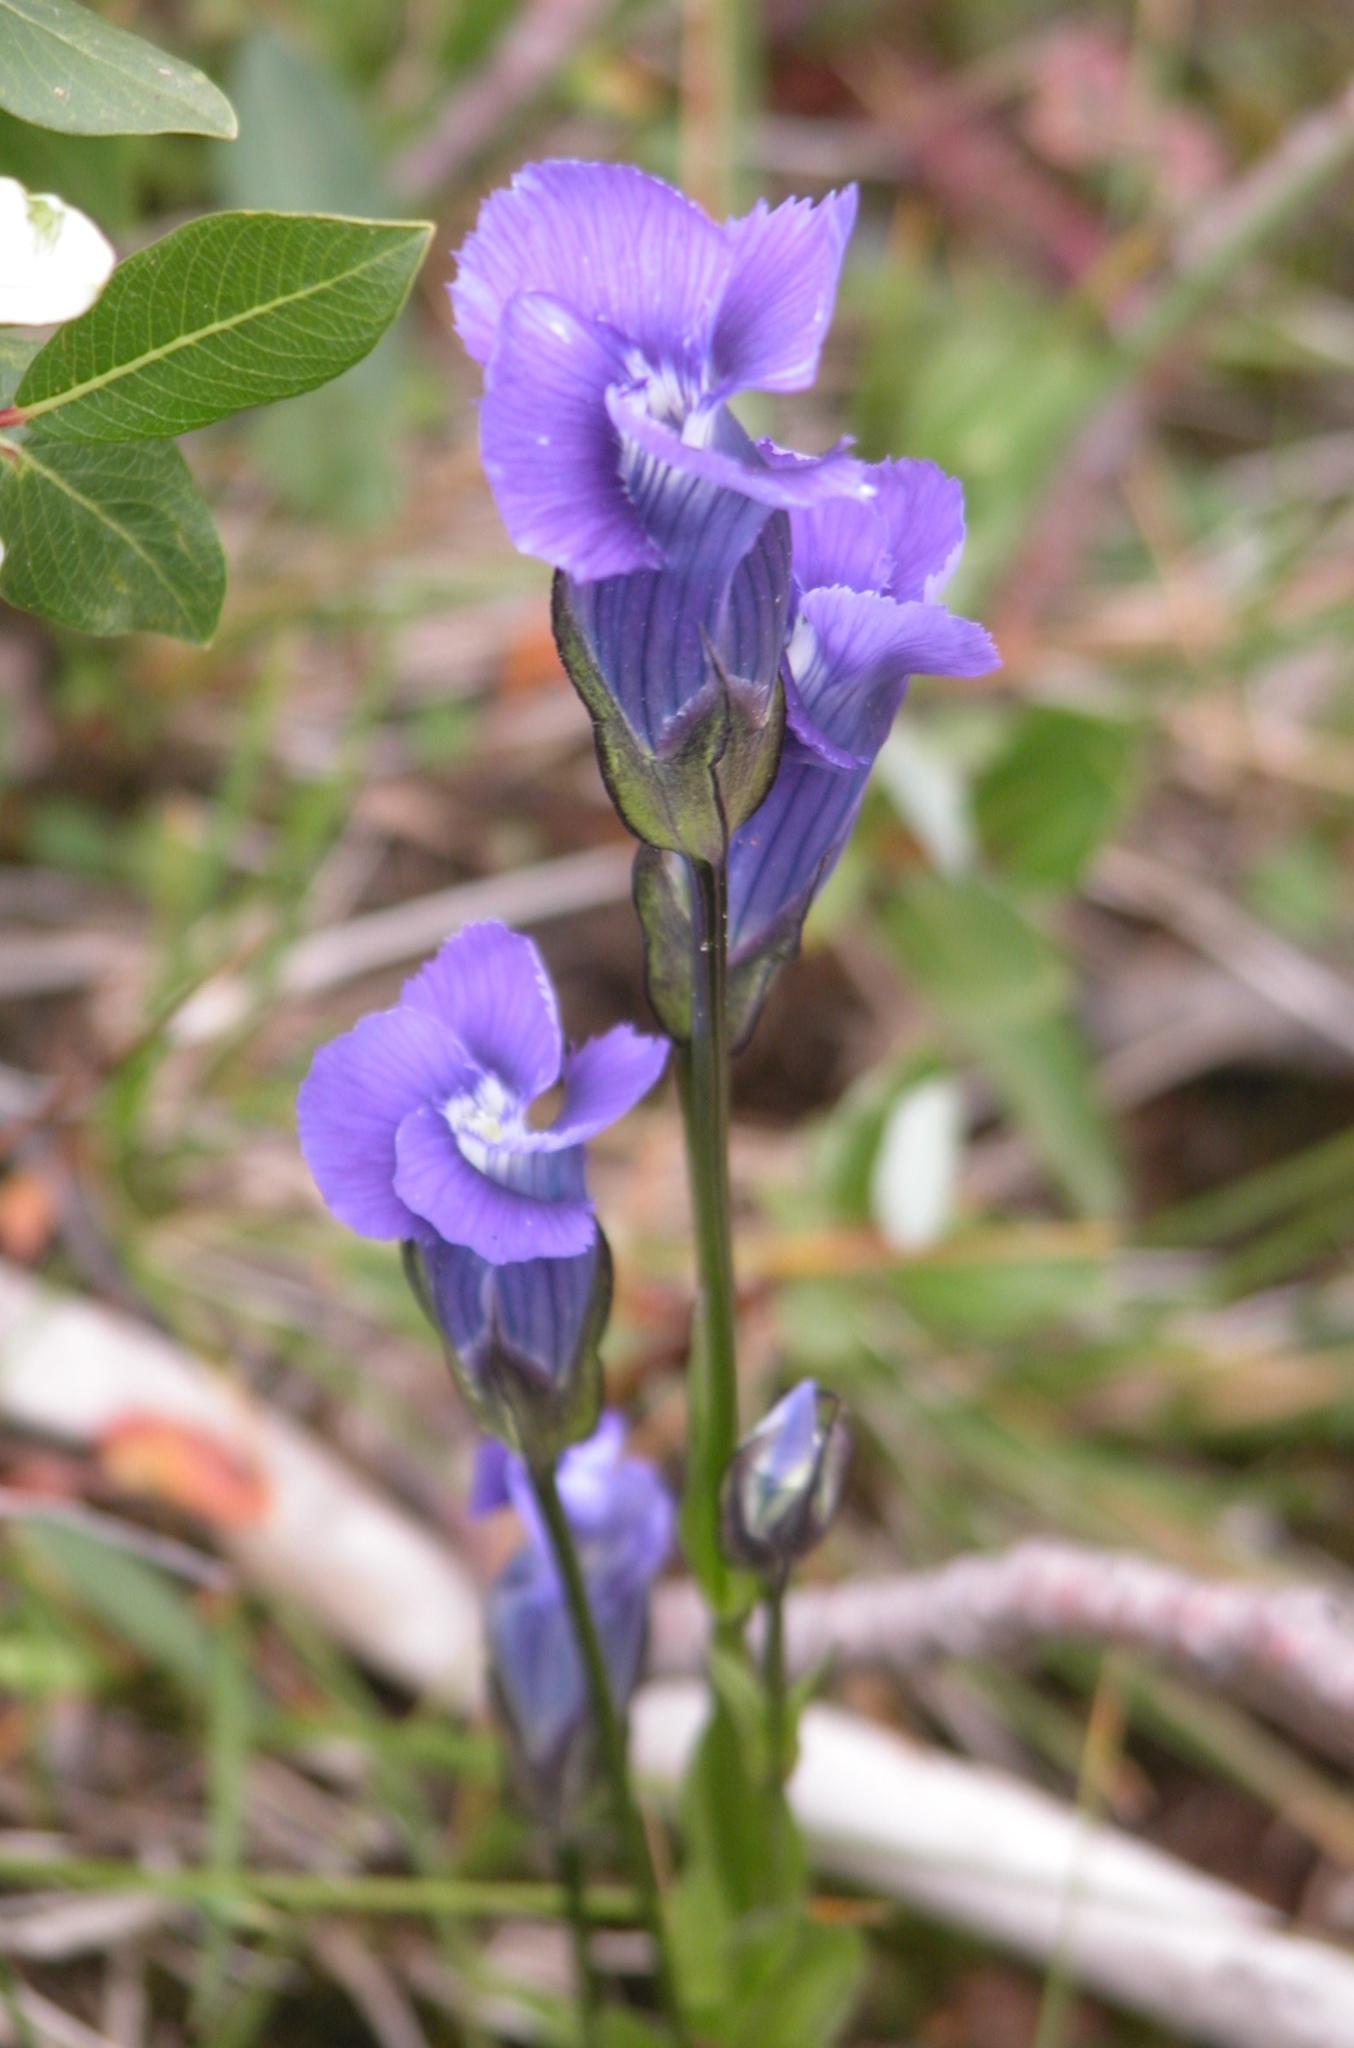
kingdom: Plantae
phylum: Tracheophyta
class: Magnoliopsida
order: Gentianales
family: Gentianaceae
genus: Gentianopsis
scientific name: Gentianopsis thermalis
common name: Rocky mountain fringed-gentian
